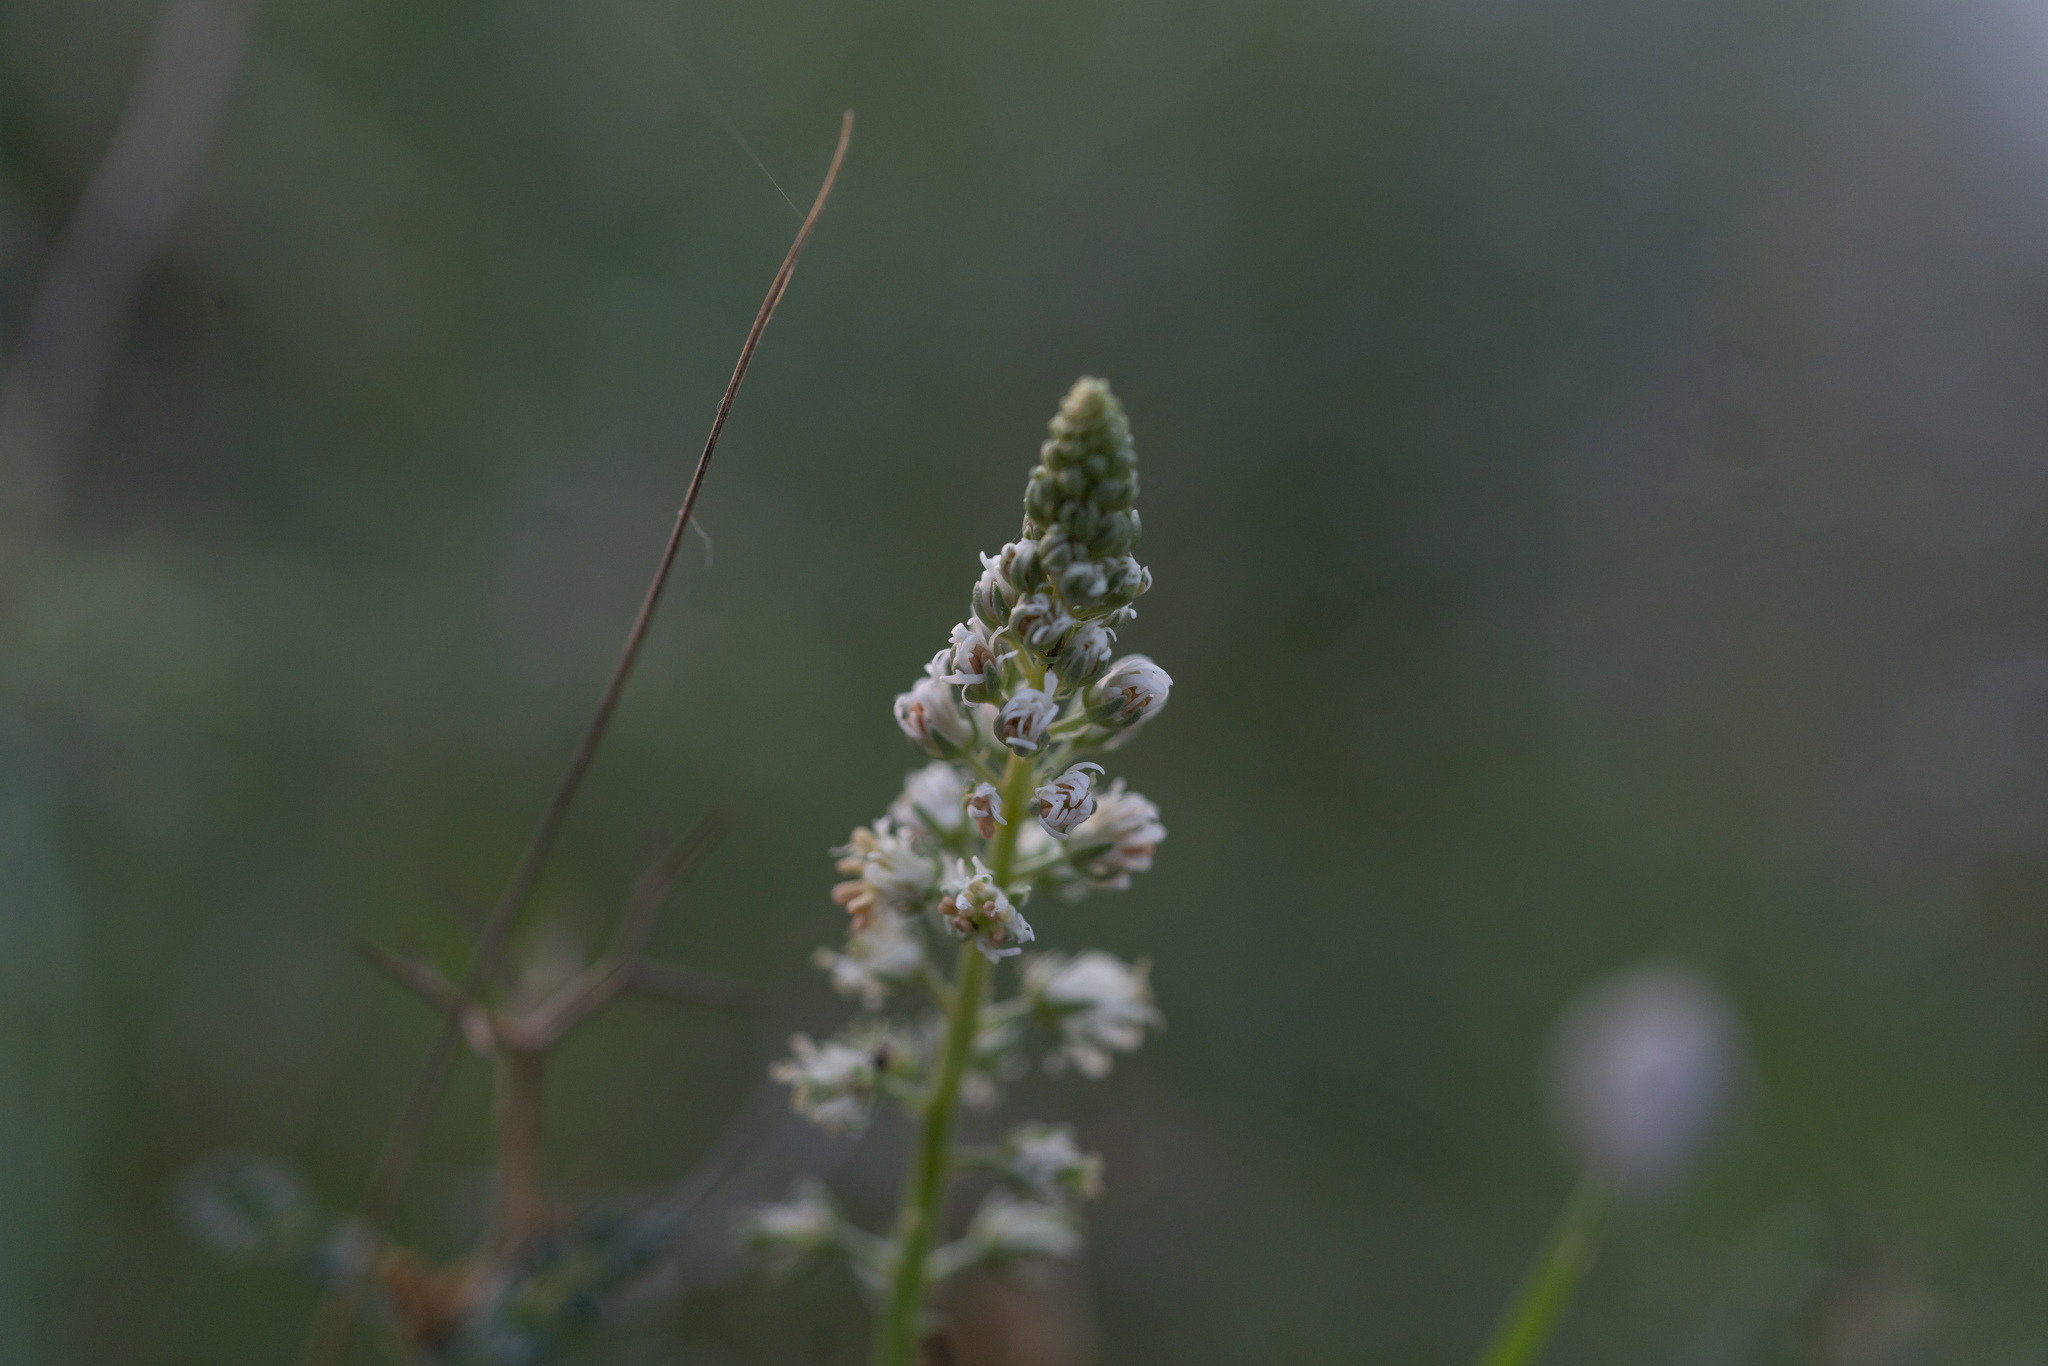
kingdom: Plantae
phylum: Tracheophyta
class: Magnoliopsida
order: Brassicales
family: Resedaceae
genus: Reseda
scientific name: Reseda alba
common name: White mignonette
